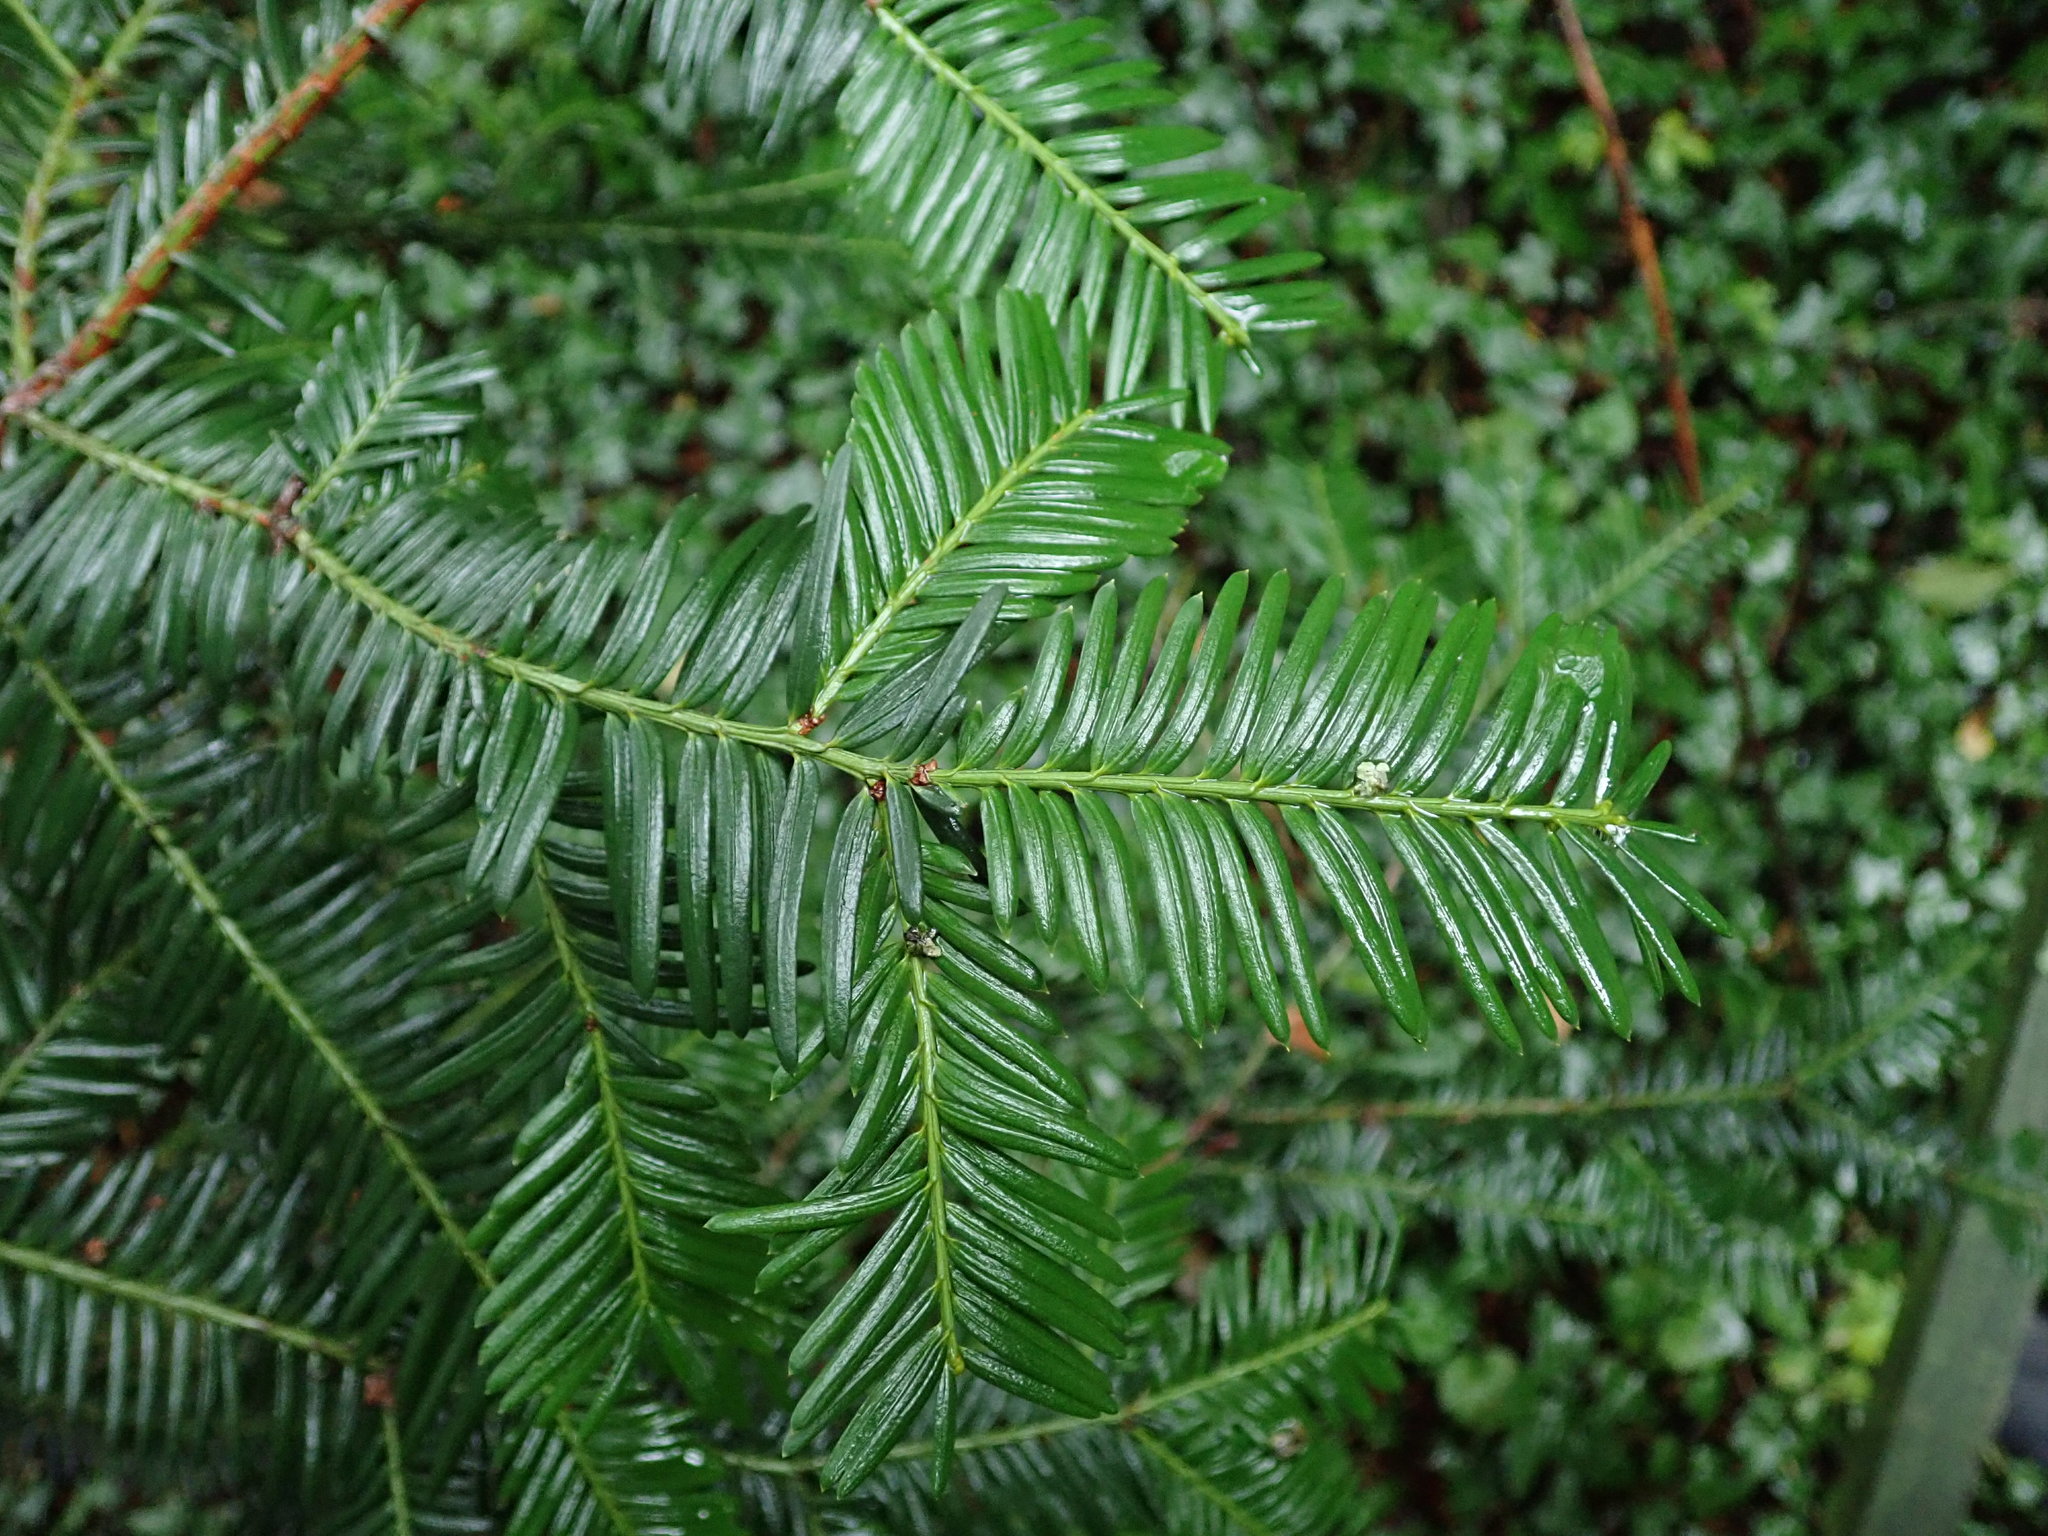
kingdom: Plantae
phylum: Tracheophyta
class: Pinopsida
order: Pinales
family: Taxaceae
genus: Taxus
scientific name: Taxus baccata
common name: Yew
